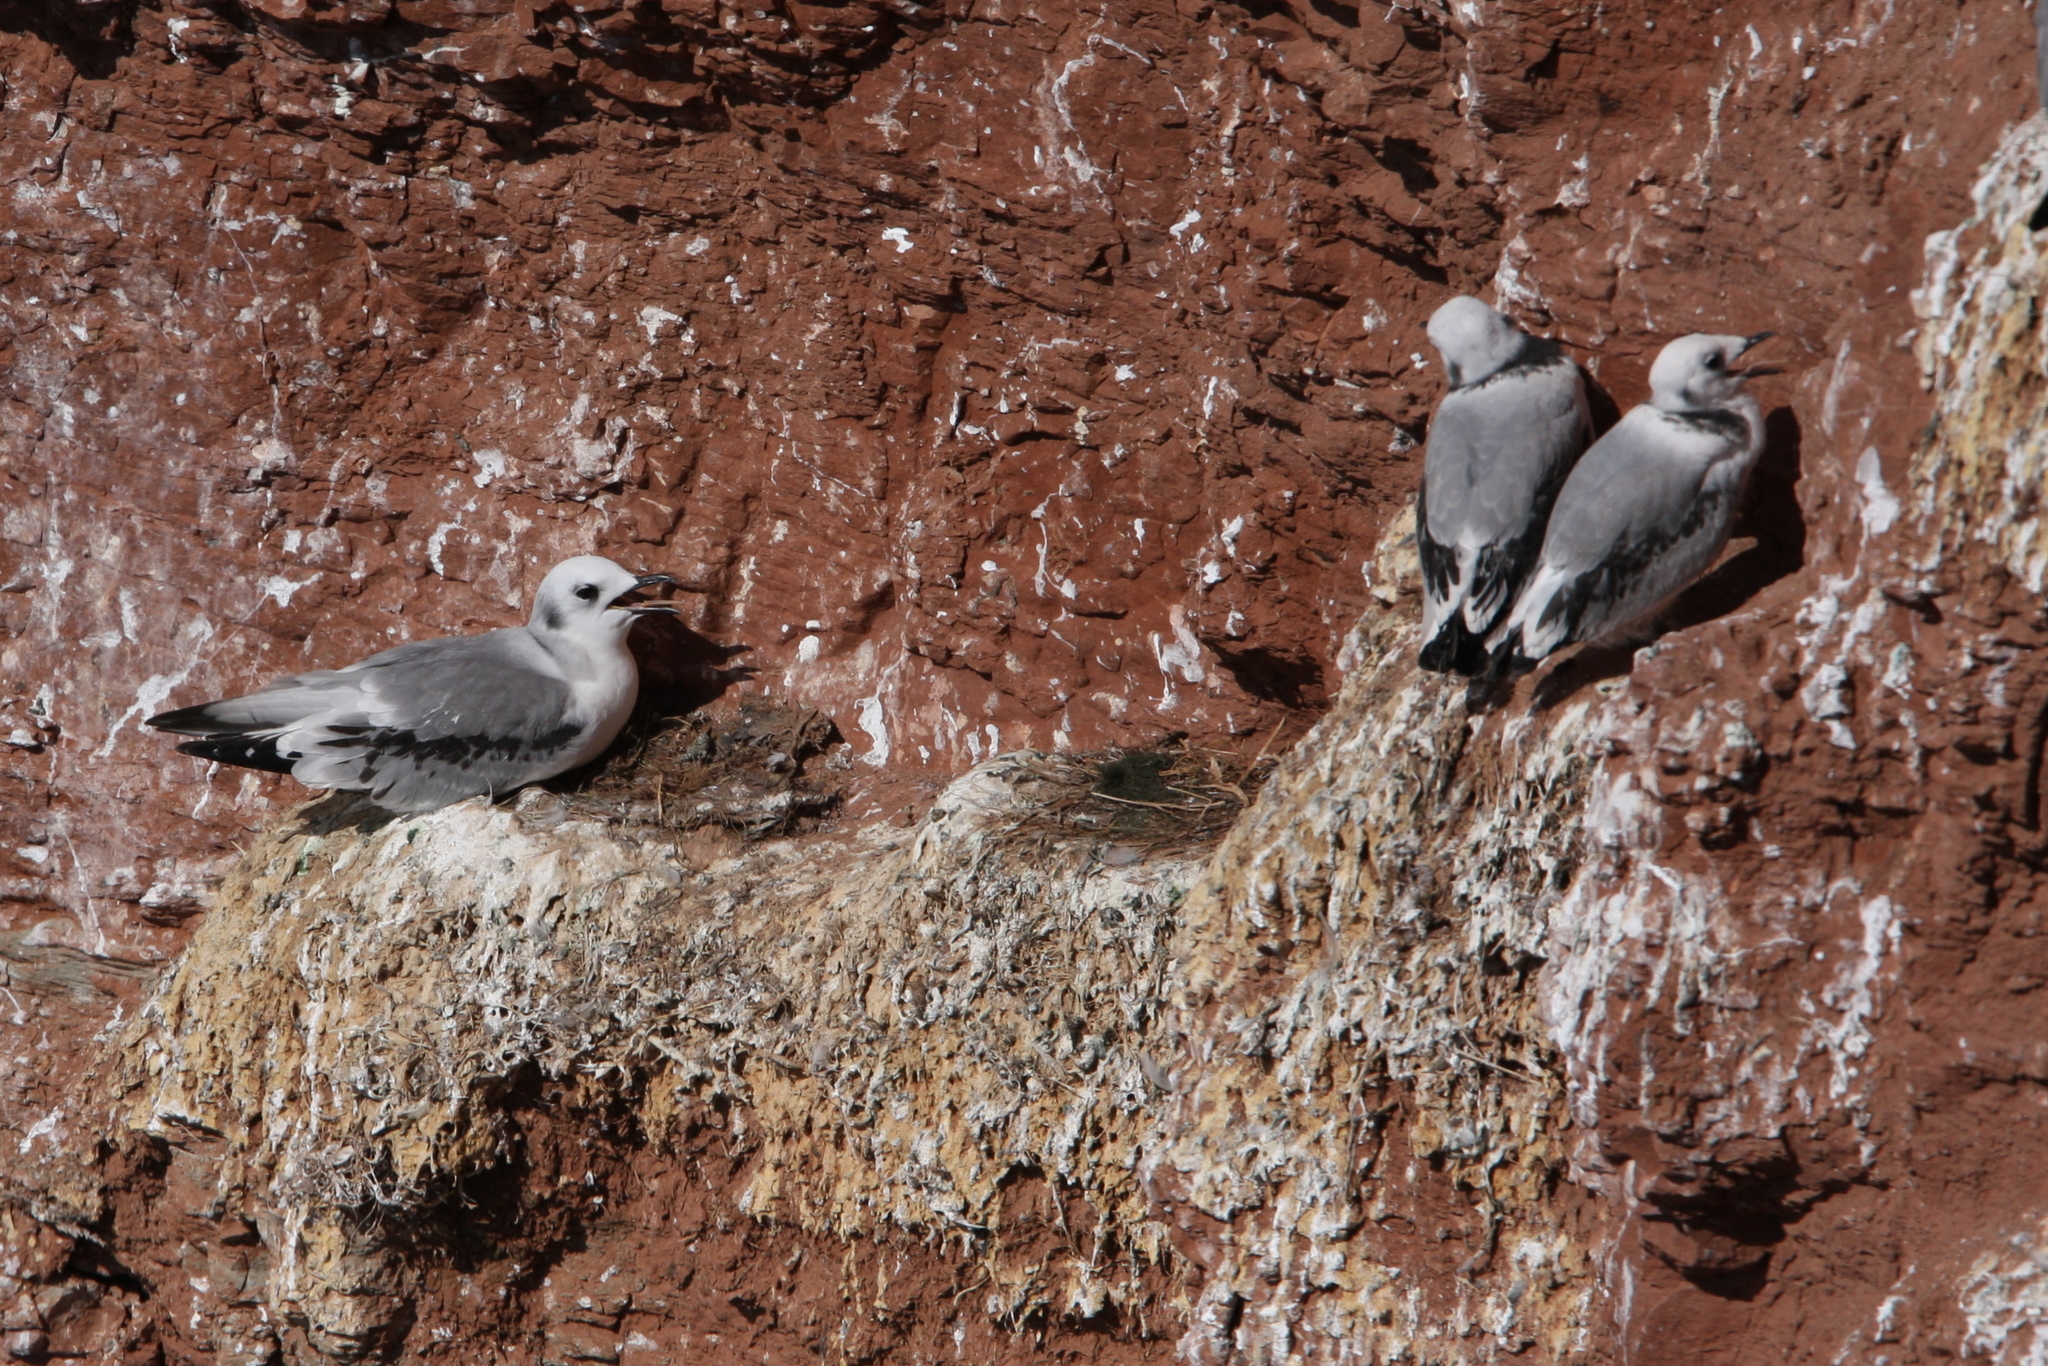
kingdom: Animalia
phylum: Chordata
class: Aves
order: Charadriiformes
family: Laridae
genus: Rissa
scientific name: Rissa tridactyla
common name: Black-legged kittiwake
